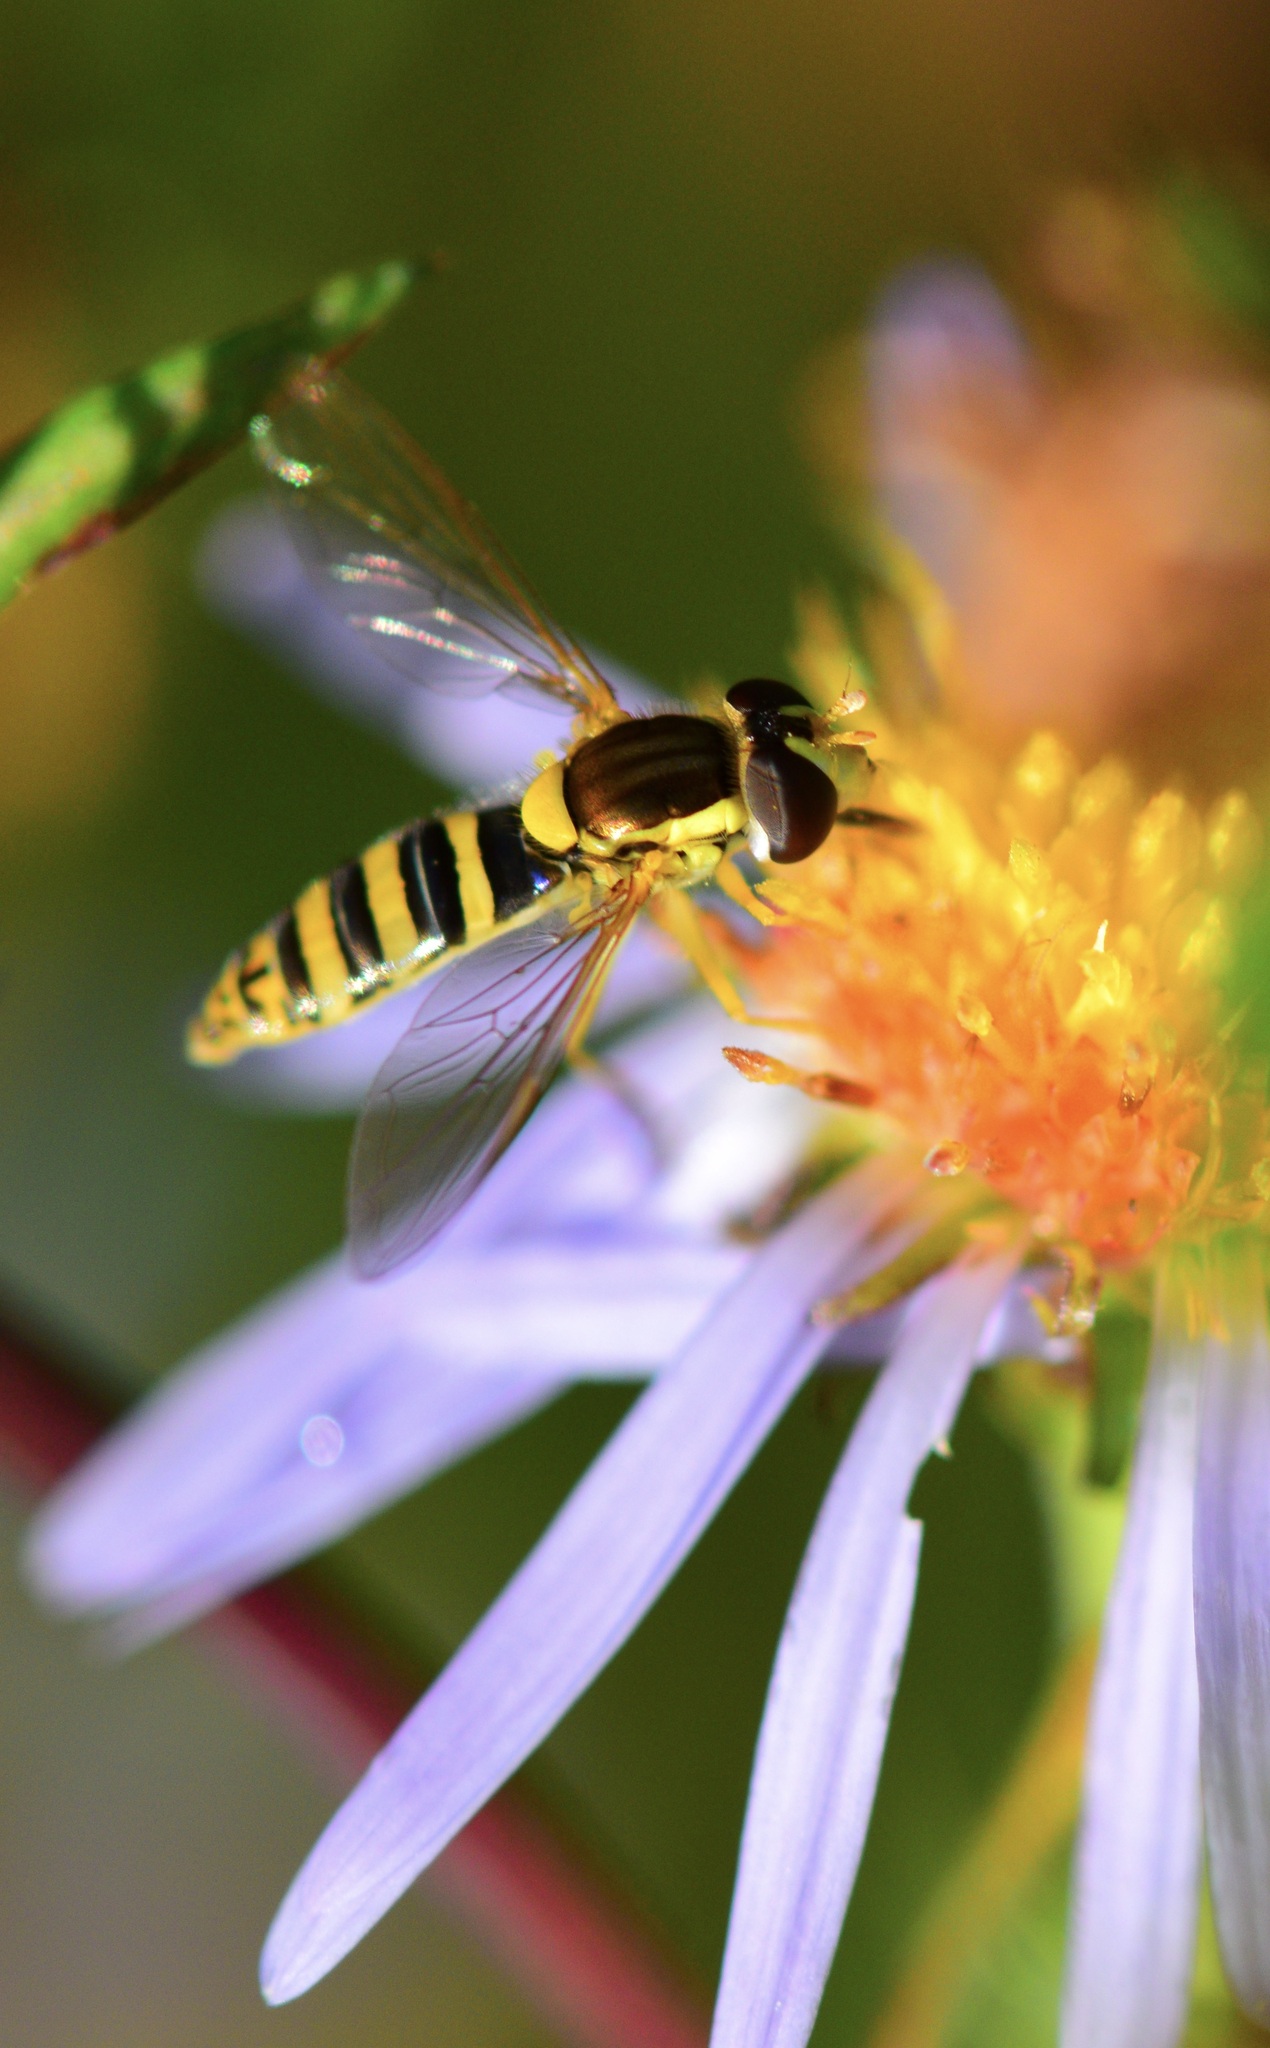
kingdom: Animalia
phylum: Arthropoda
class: Insecta
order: Diptera
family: Syrphidae
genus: Sphaerophoria
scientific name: Sphaerophoria
